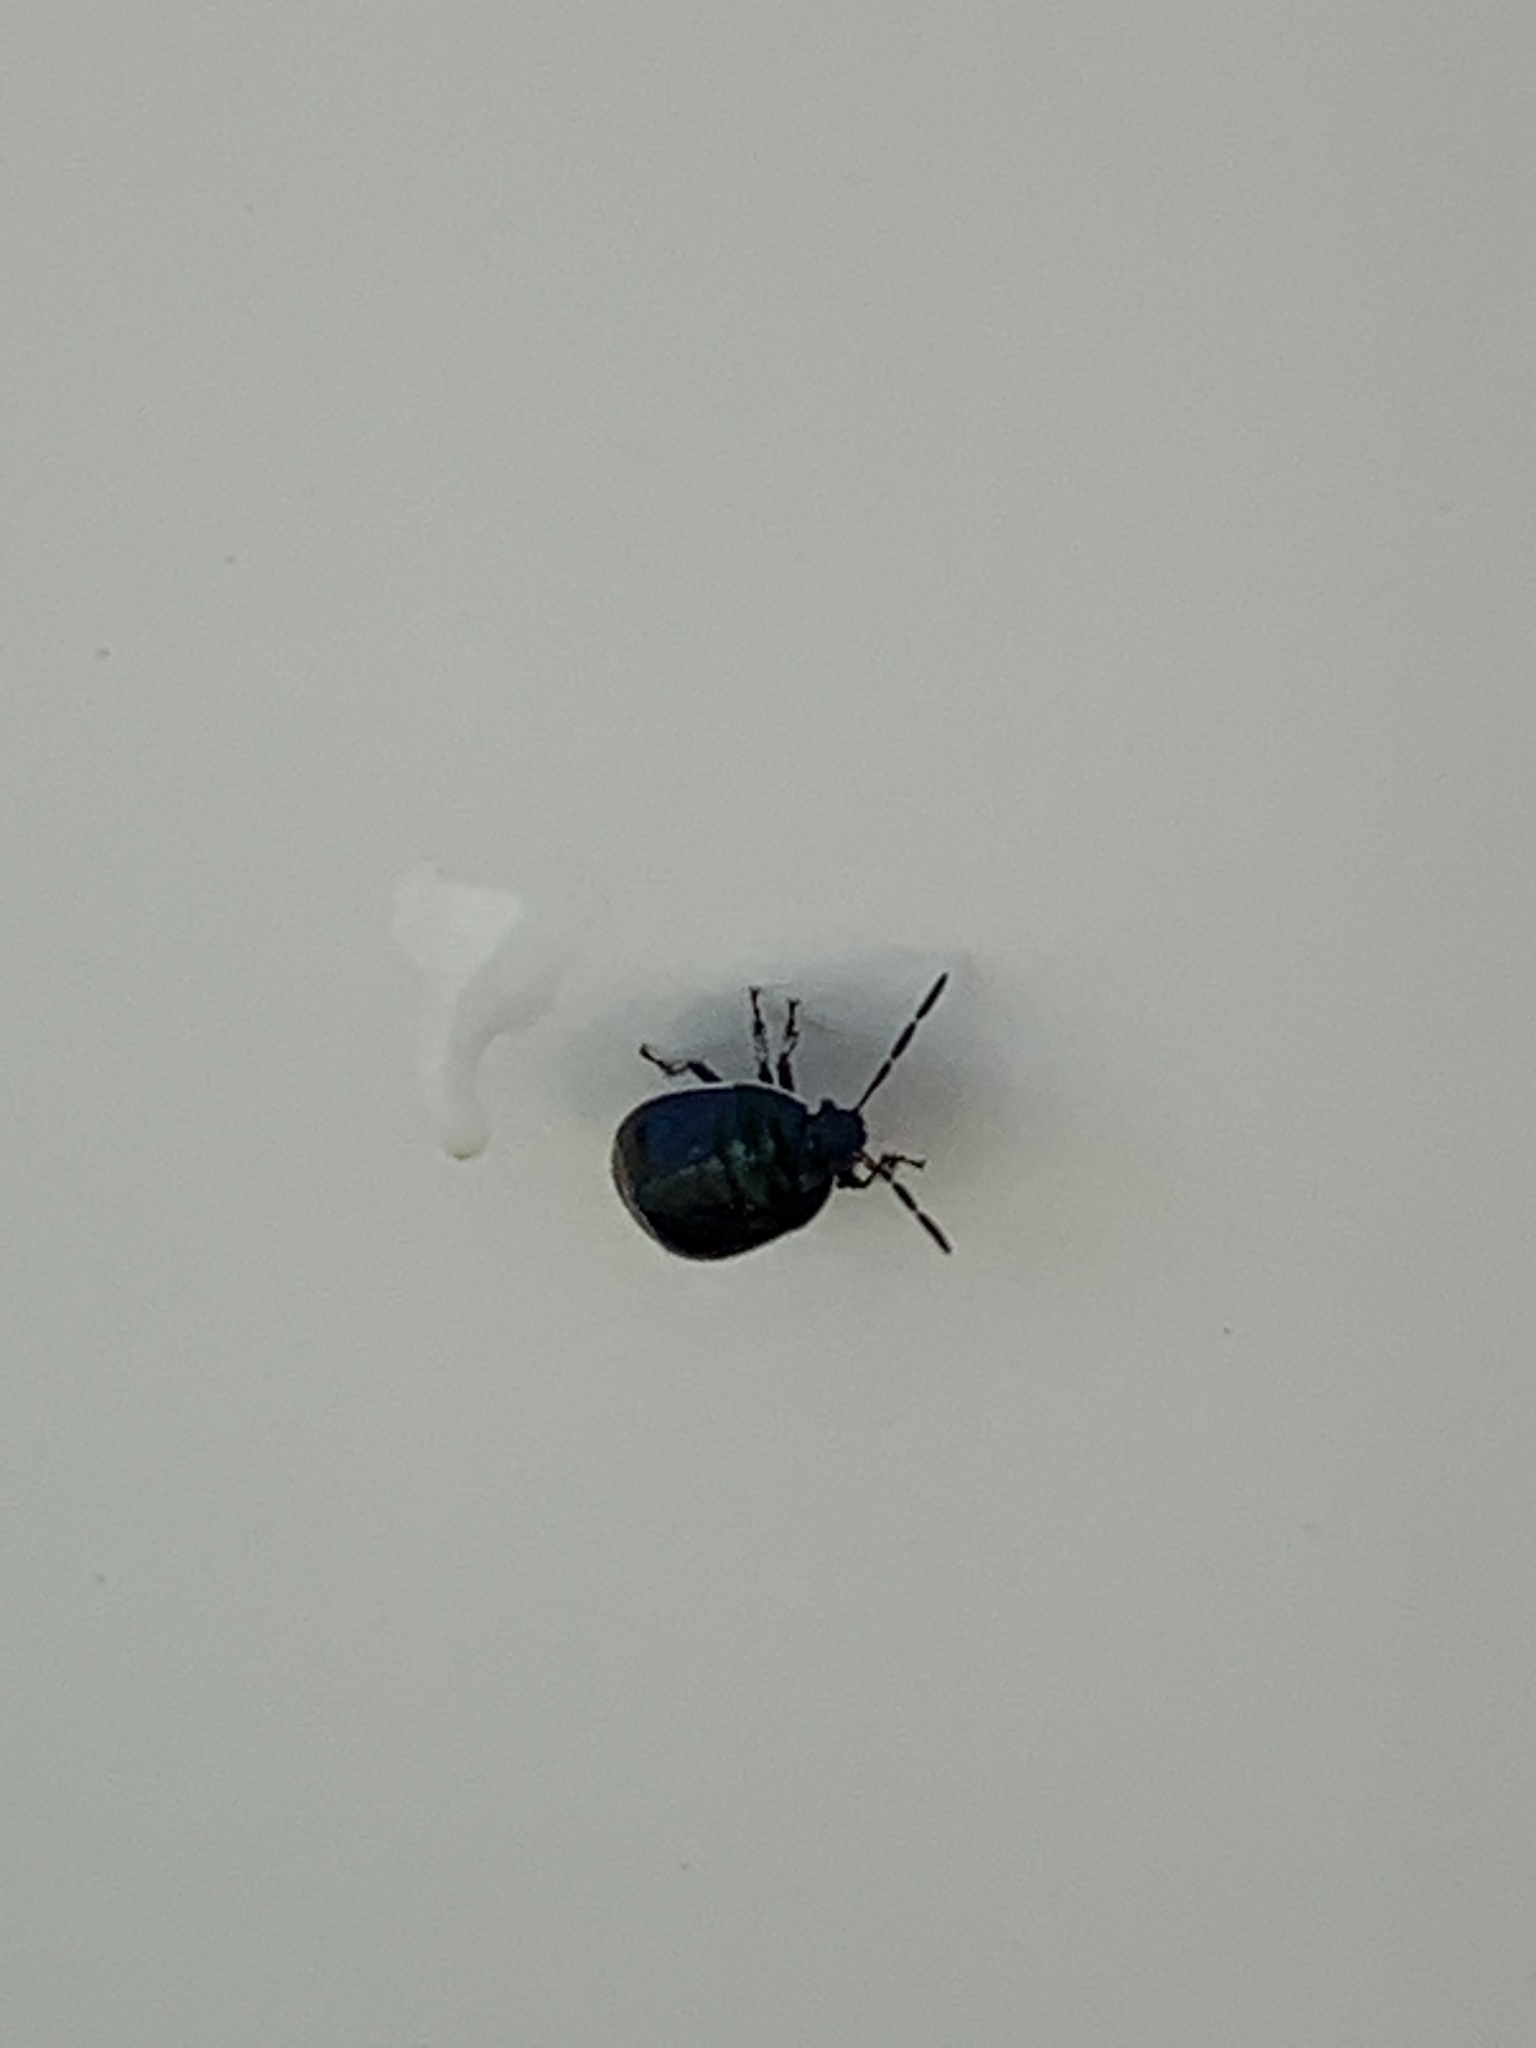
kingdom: Animalia
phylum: Arthropoda
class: Insecta
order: Hemiptera
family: Cydnidae
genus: Sehirus
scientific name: Sehirus cinctus
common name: White-margined burrower bug
